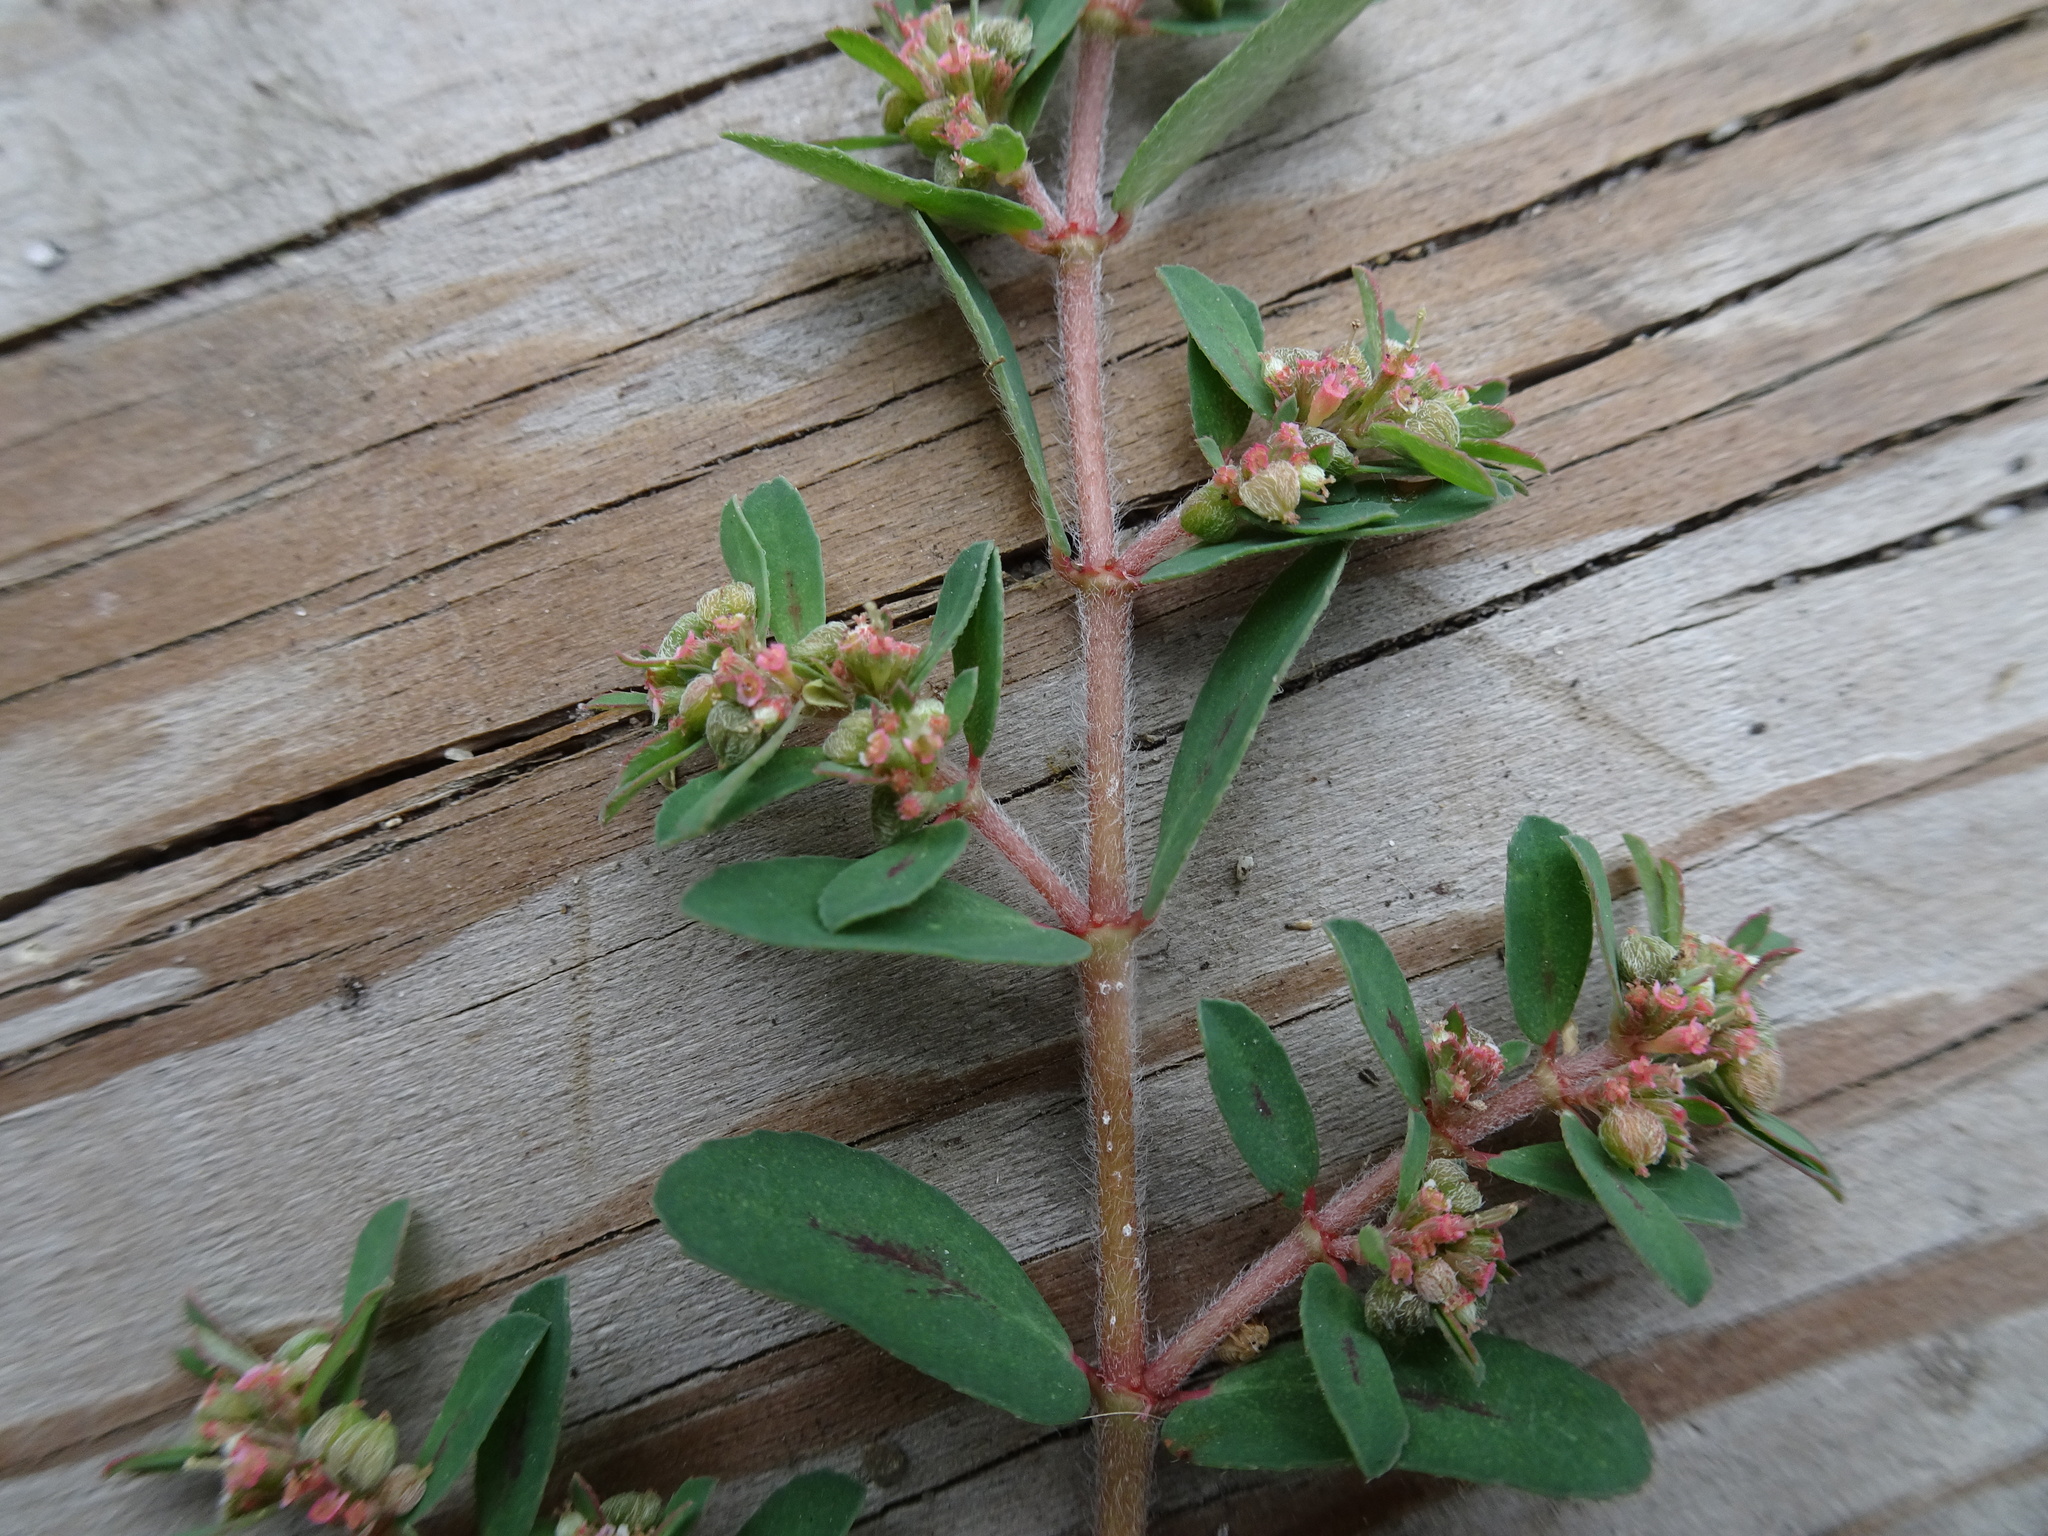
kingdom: Plantae
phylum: Tracheophyta
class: Magnoliopsida
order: Malpighiales
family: Euphorbiaceae
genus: Euphorbia
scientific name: Euphorbia maculata
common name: Spotted spurge
